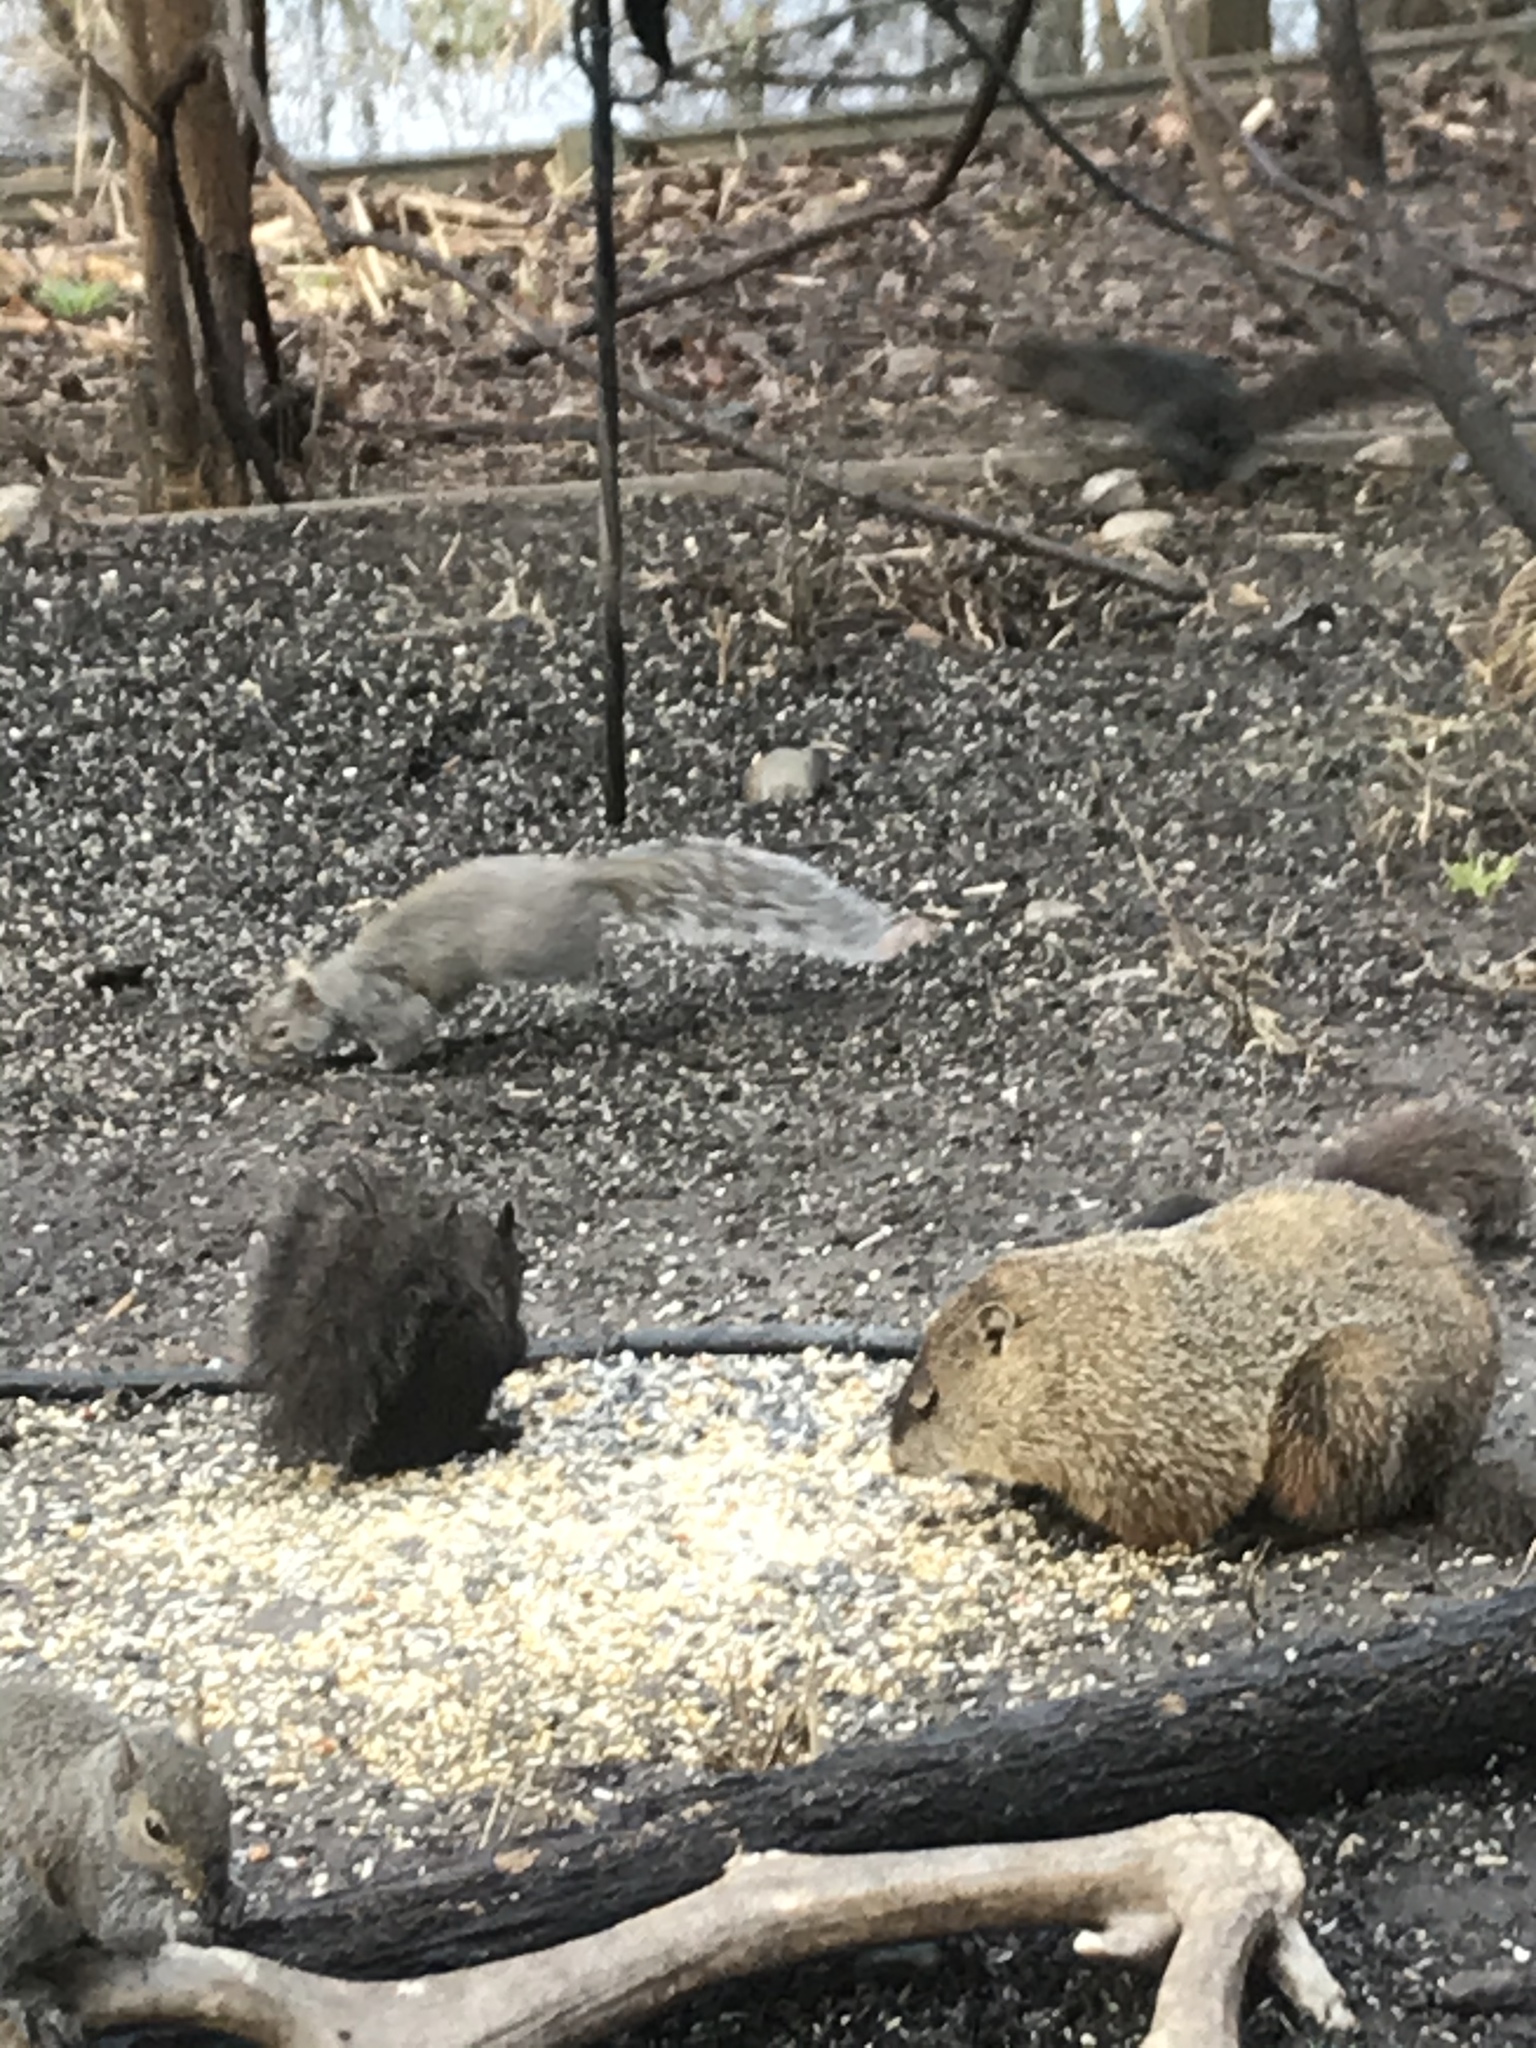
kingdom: Animalia
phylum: Chordata
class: Mammalia
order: Rodentia
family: Sciuridae
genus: Marmota
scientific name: Marmota monax
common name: Groundhog
